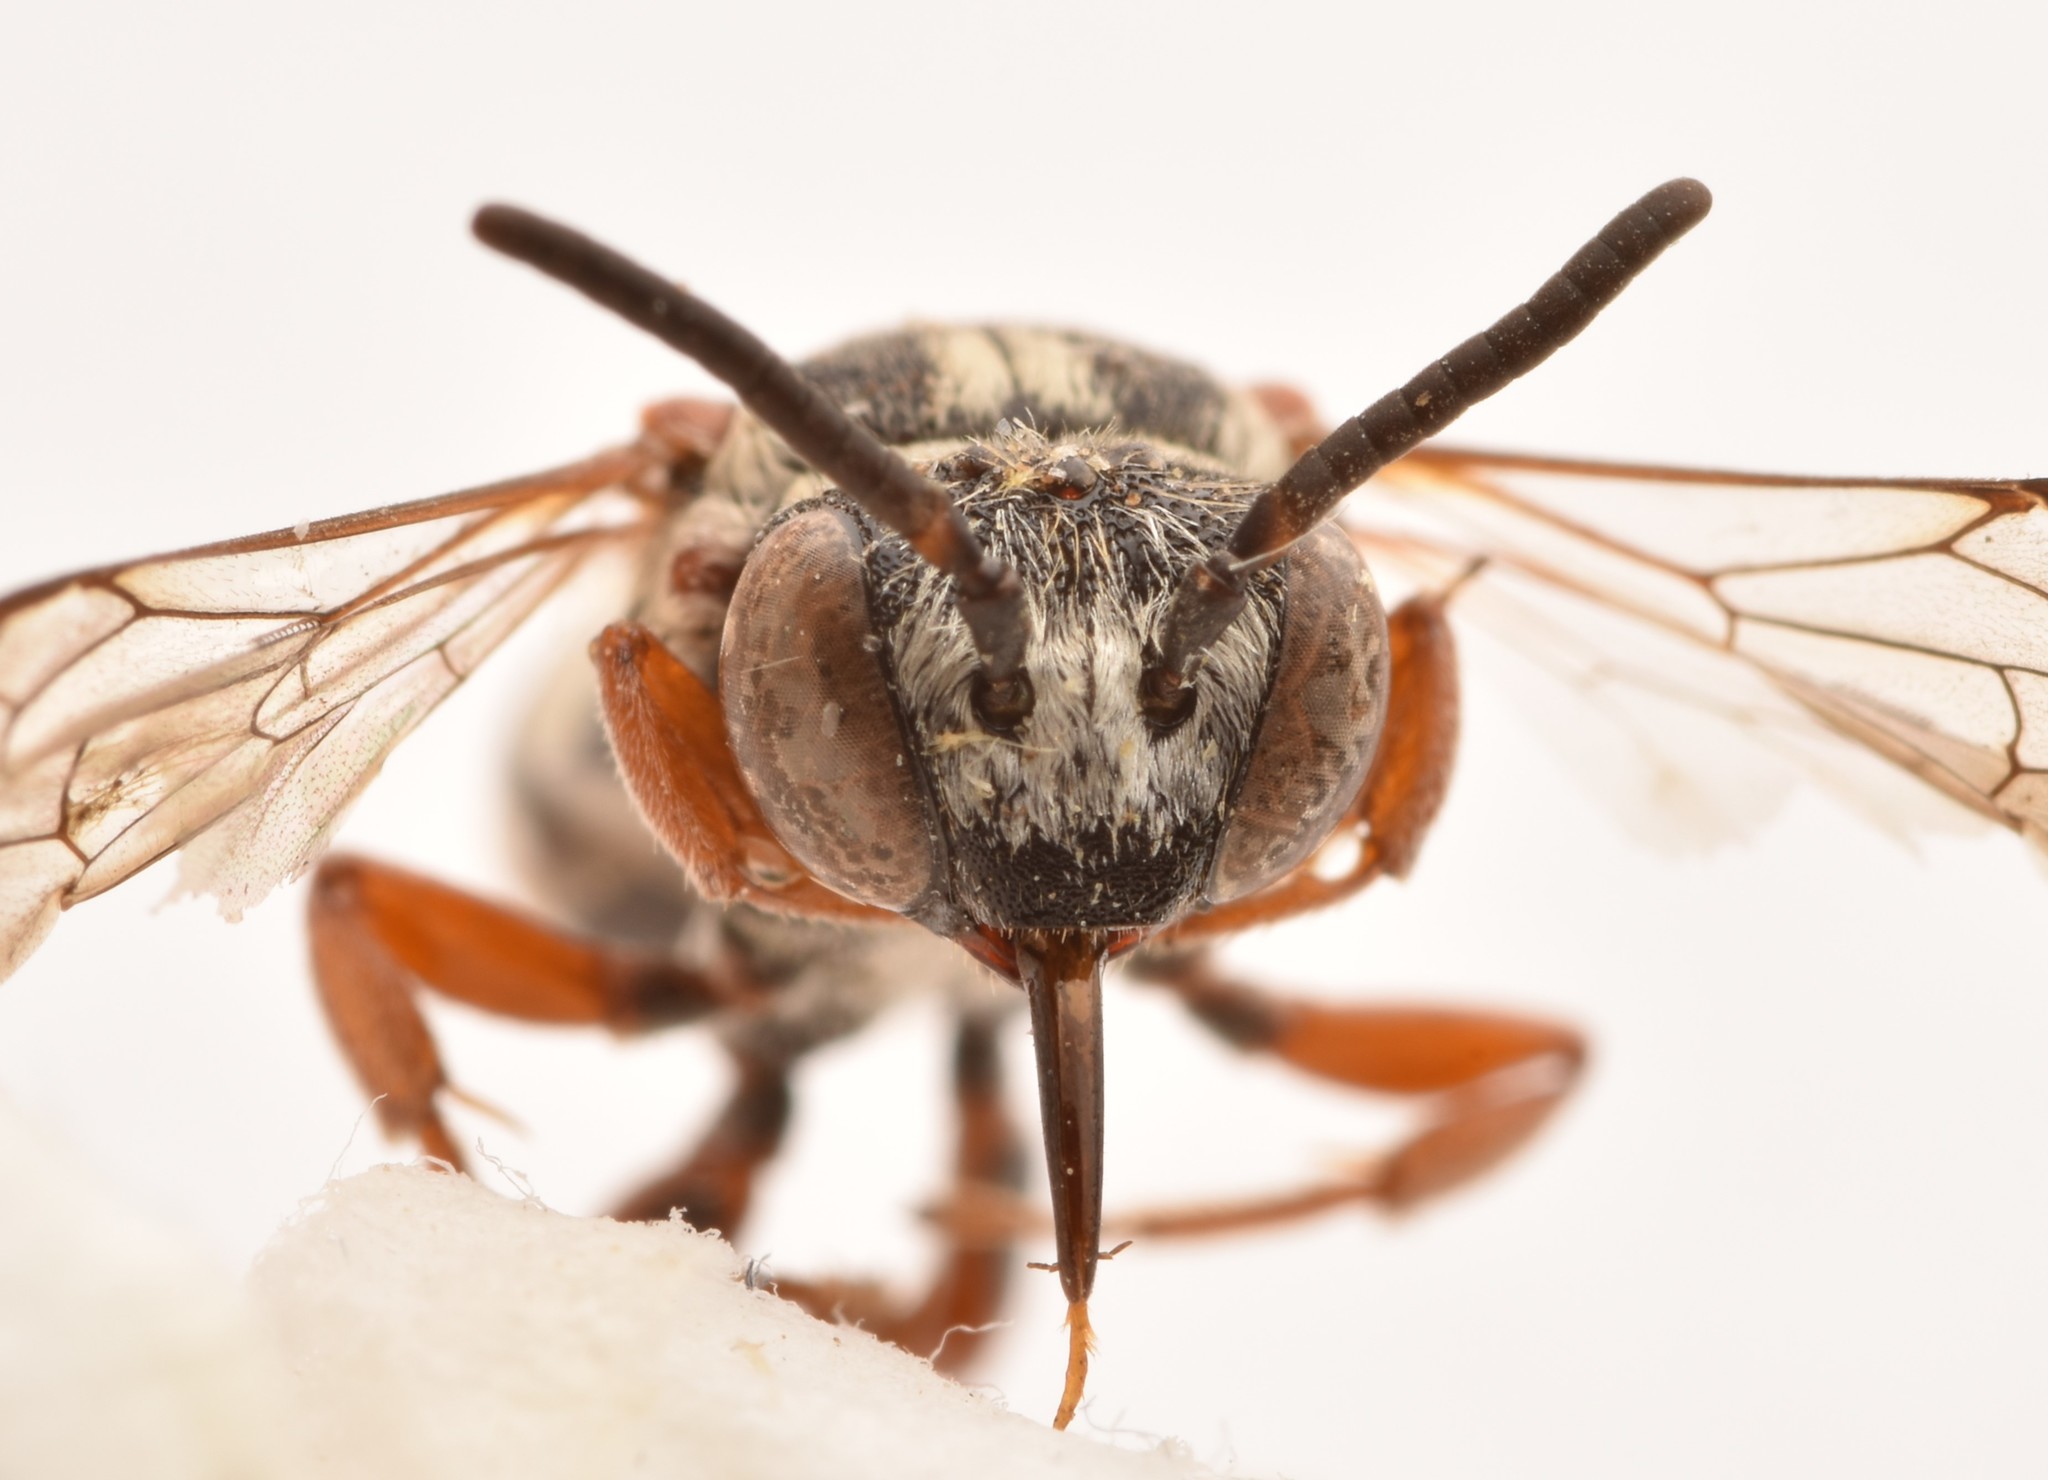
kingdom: Animalia
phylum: Arthropoda
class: Insecta
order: Hymenoptera
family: Apidae
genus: Epeolus
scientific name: Epeolus compactus
